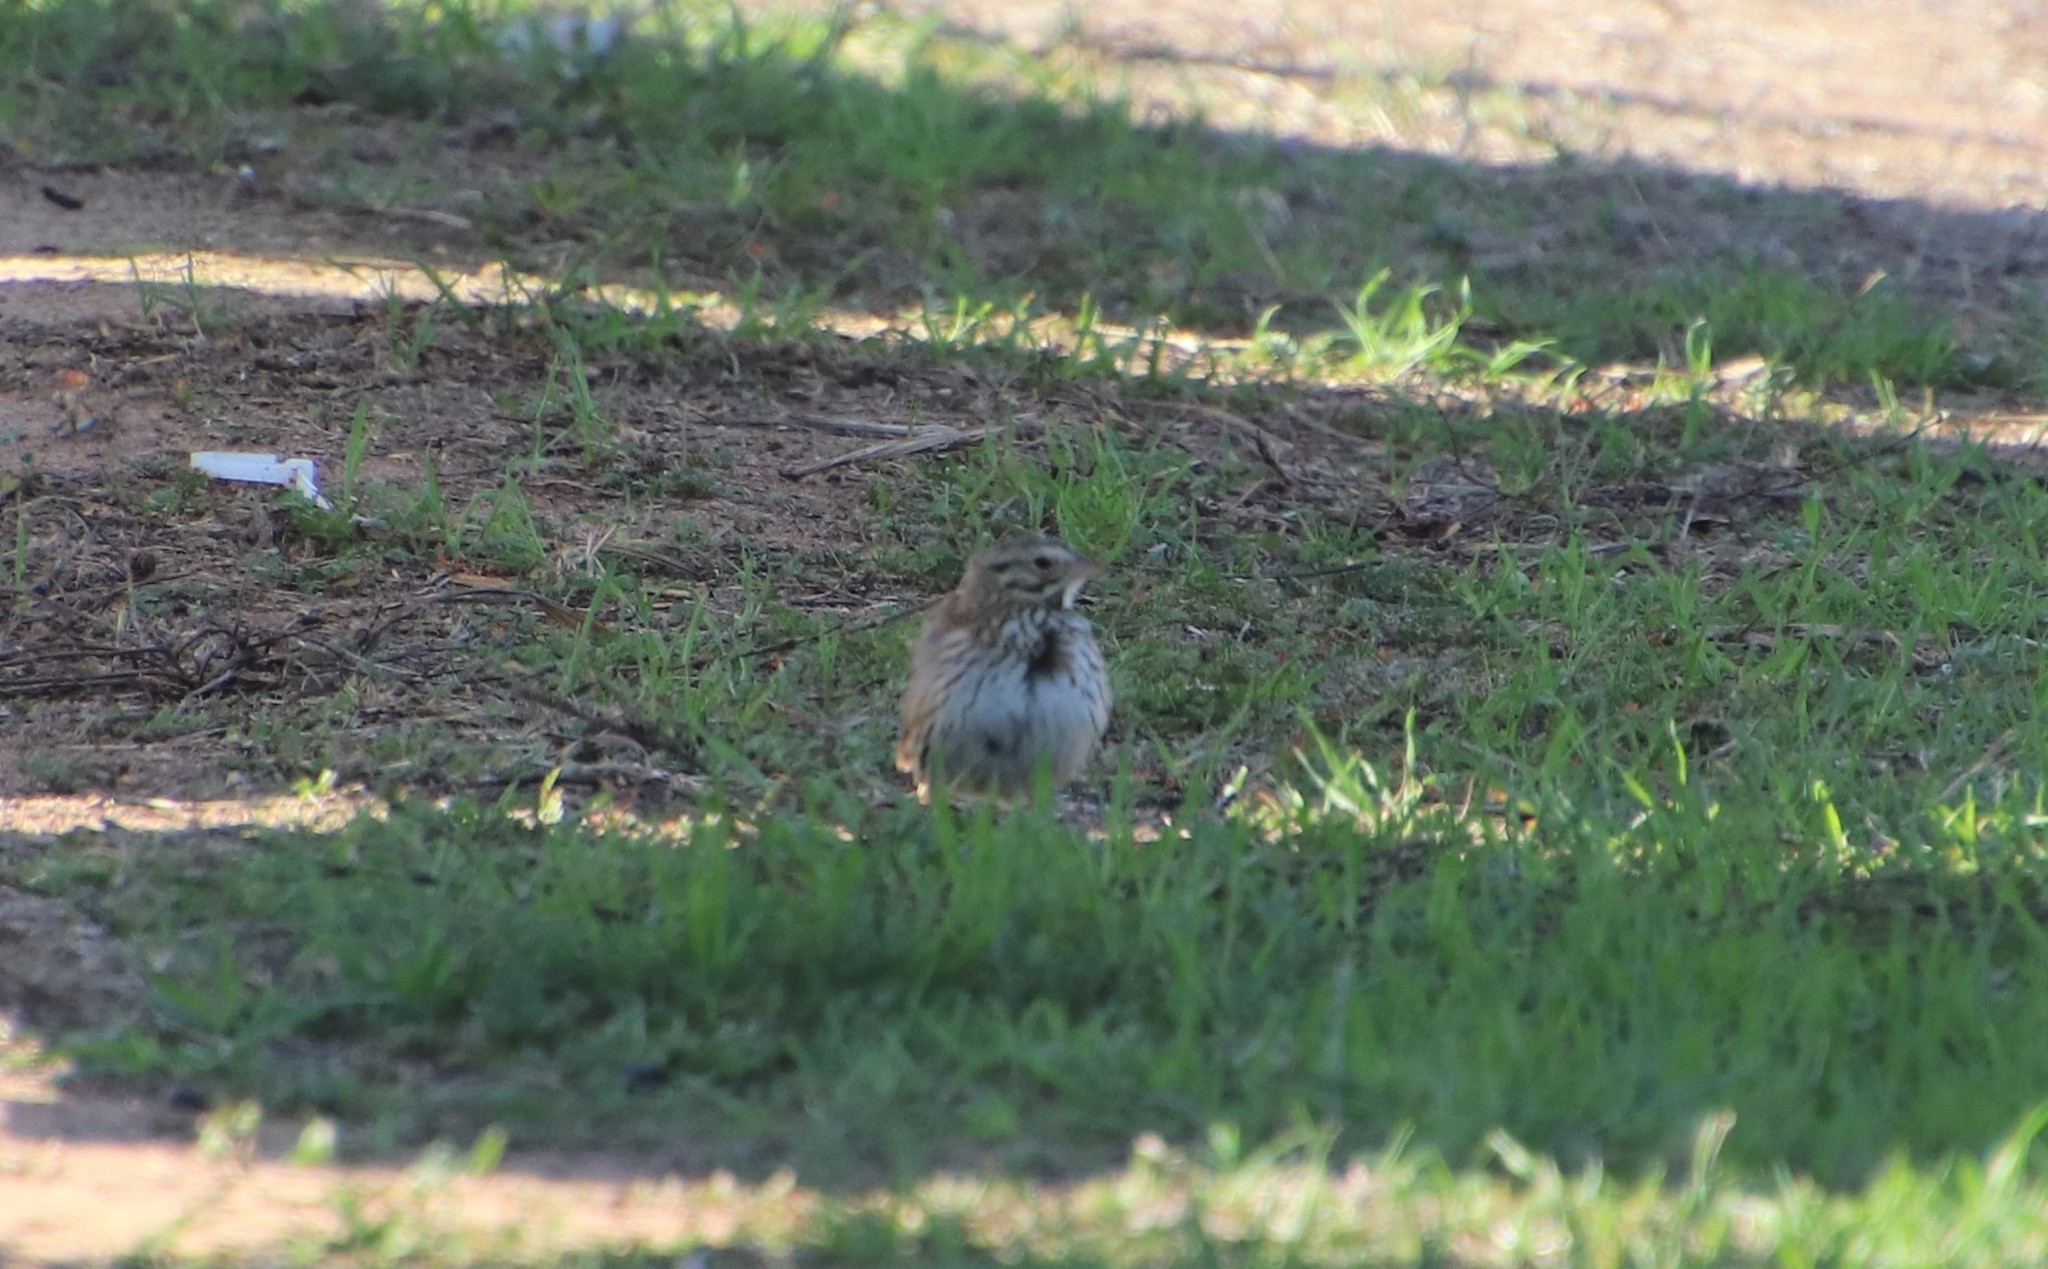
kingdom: Animalia
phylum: Chordata
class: Aves
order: Passeriformes
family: Passerellidae
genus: Passerculus
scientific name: Passerculus sandwichensis
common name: Savannah sparrow
